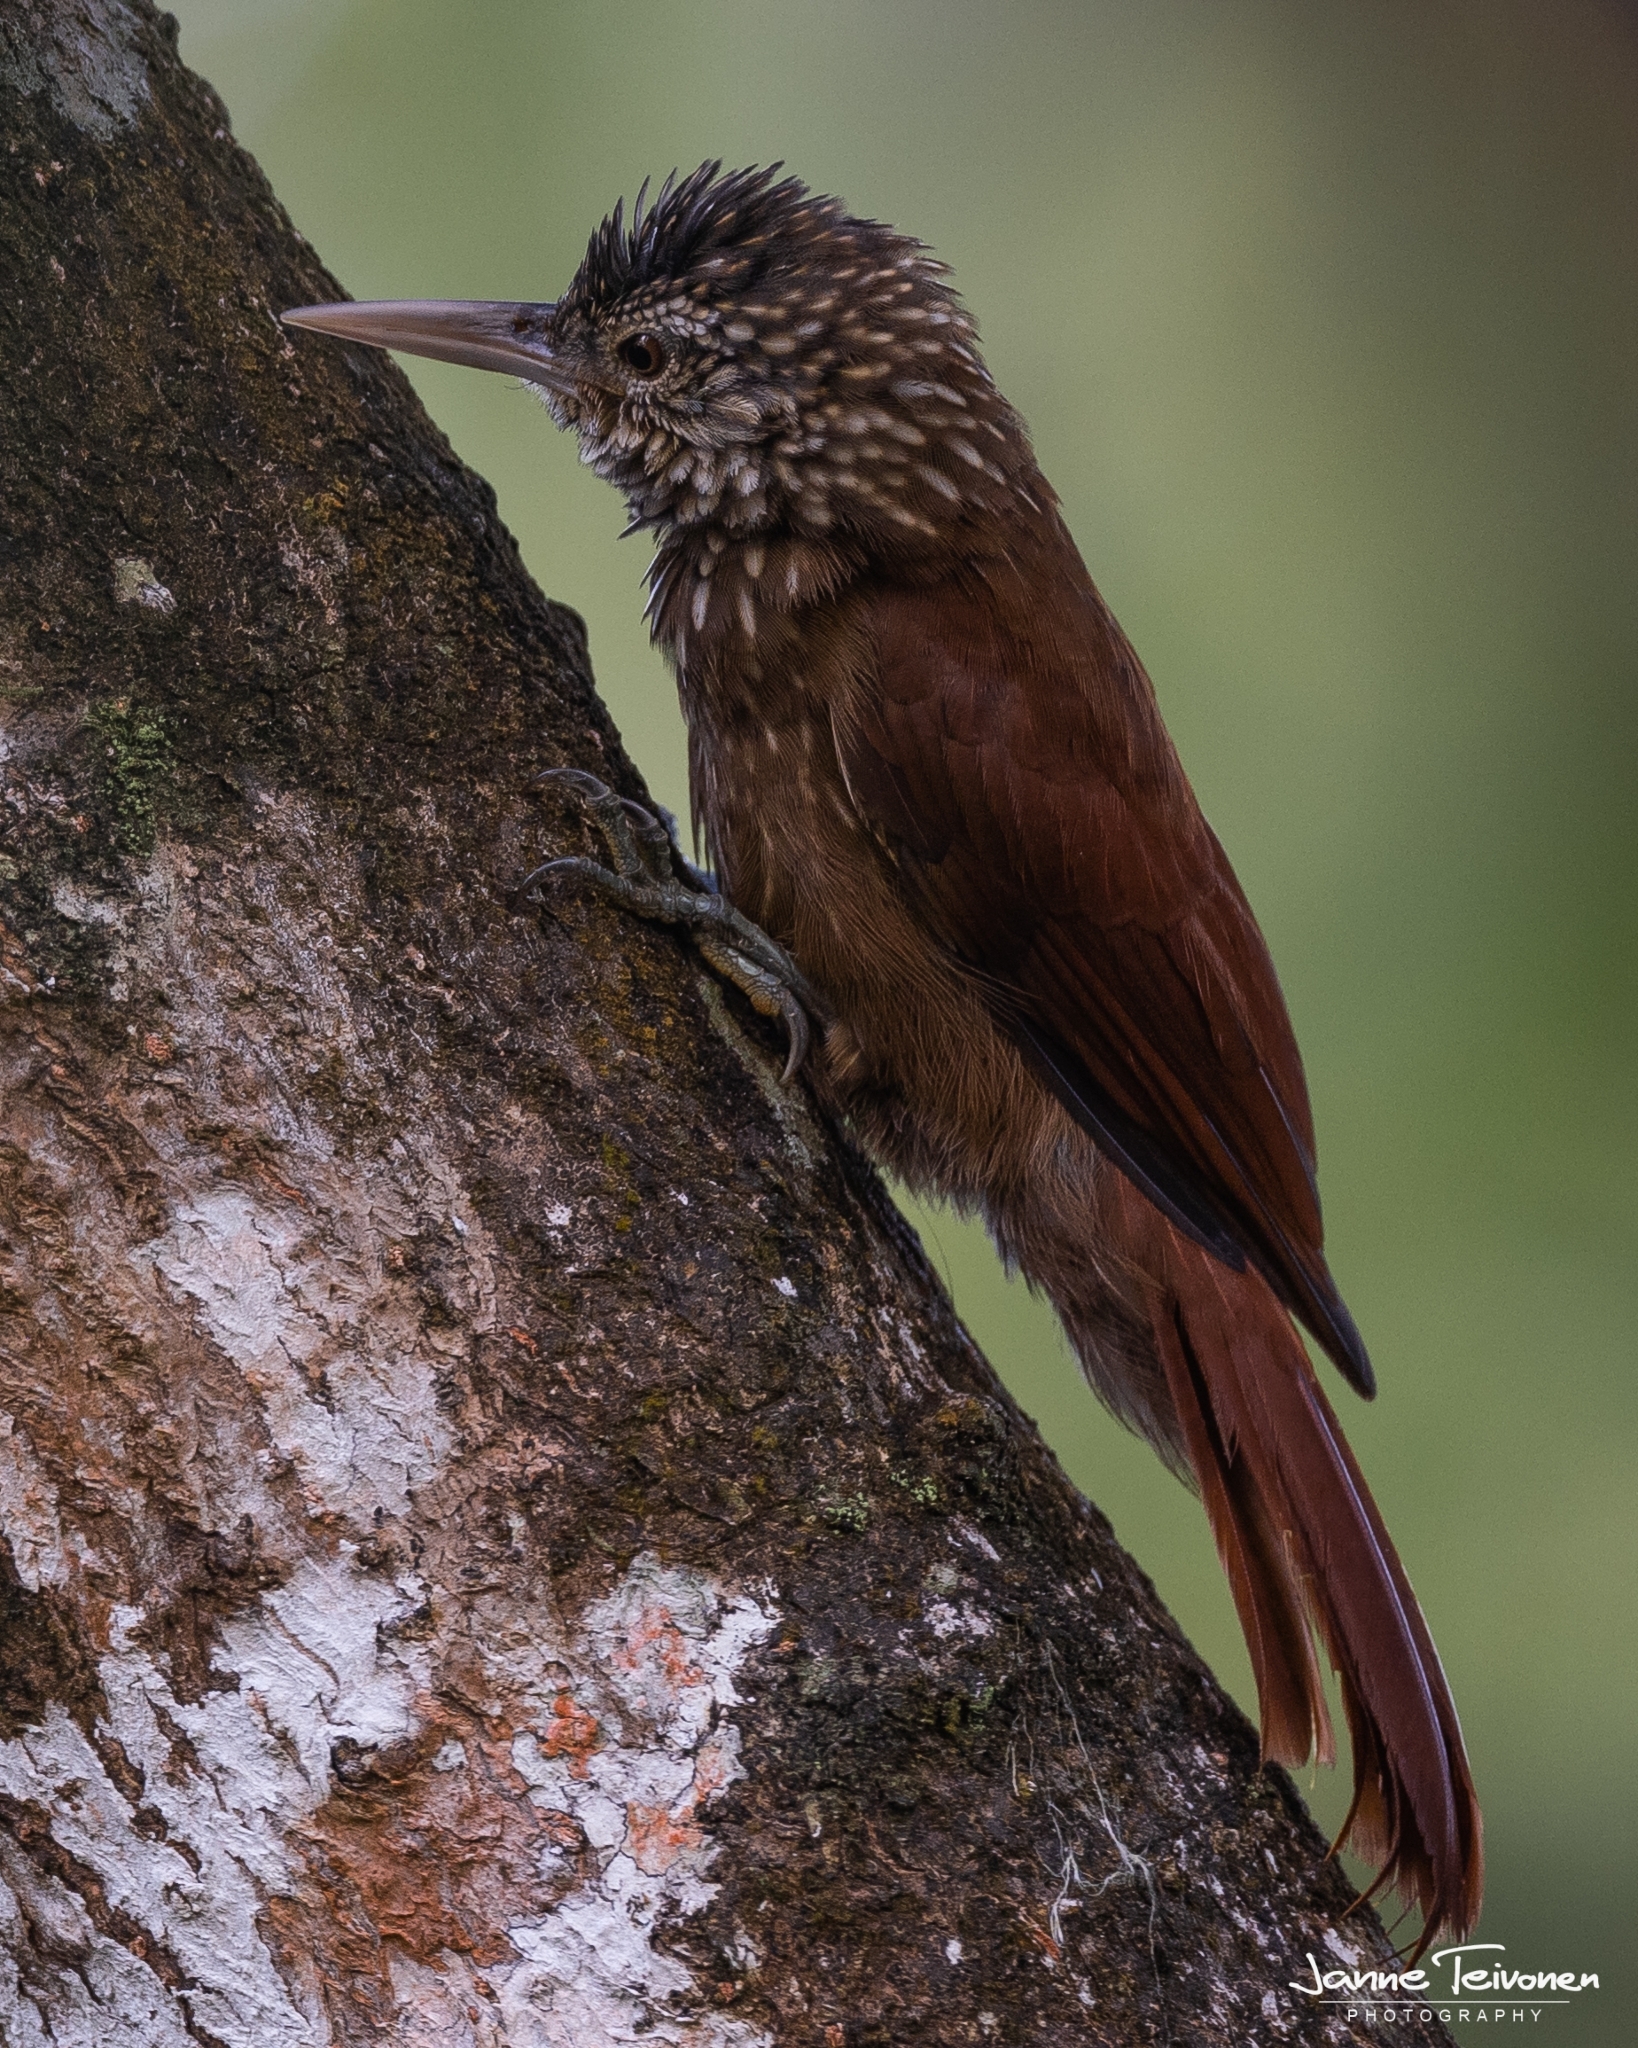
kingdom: Animalia
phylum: Chordata
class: Aves
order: Passeriformes
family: Furnariidae
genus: Xiphorhynchus
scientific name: Xiphorhynchus picus
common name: Straight-billed woodcreeper
